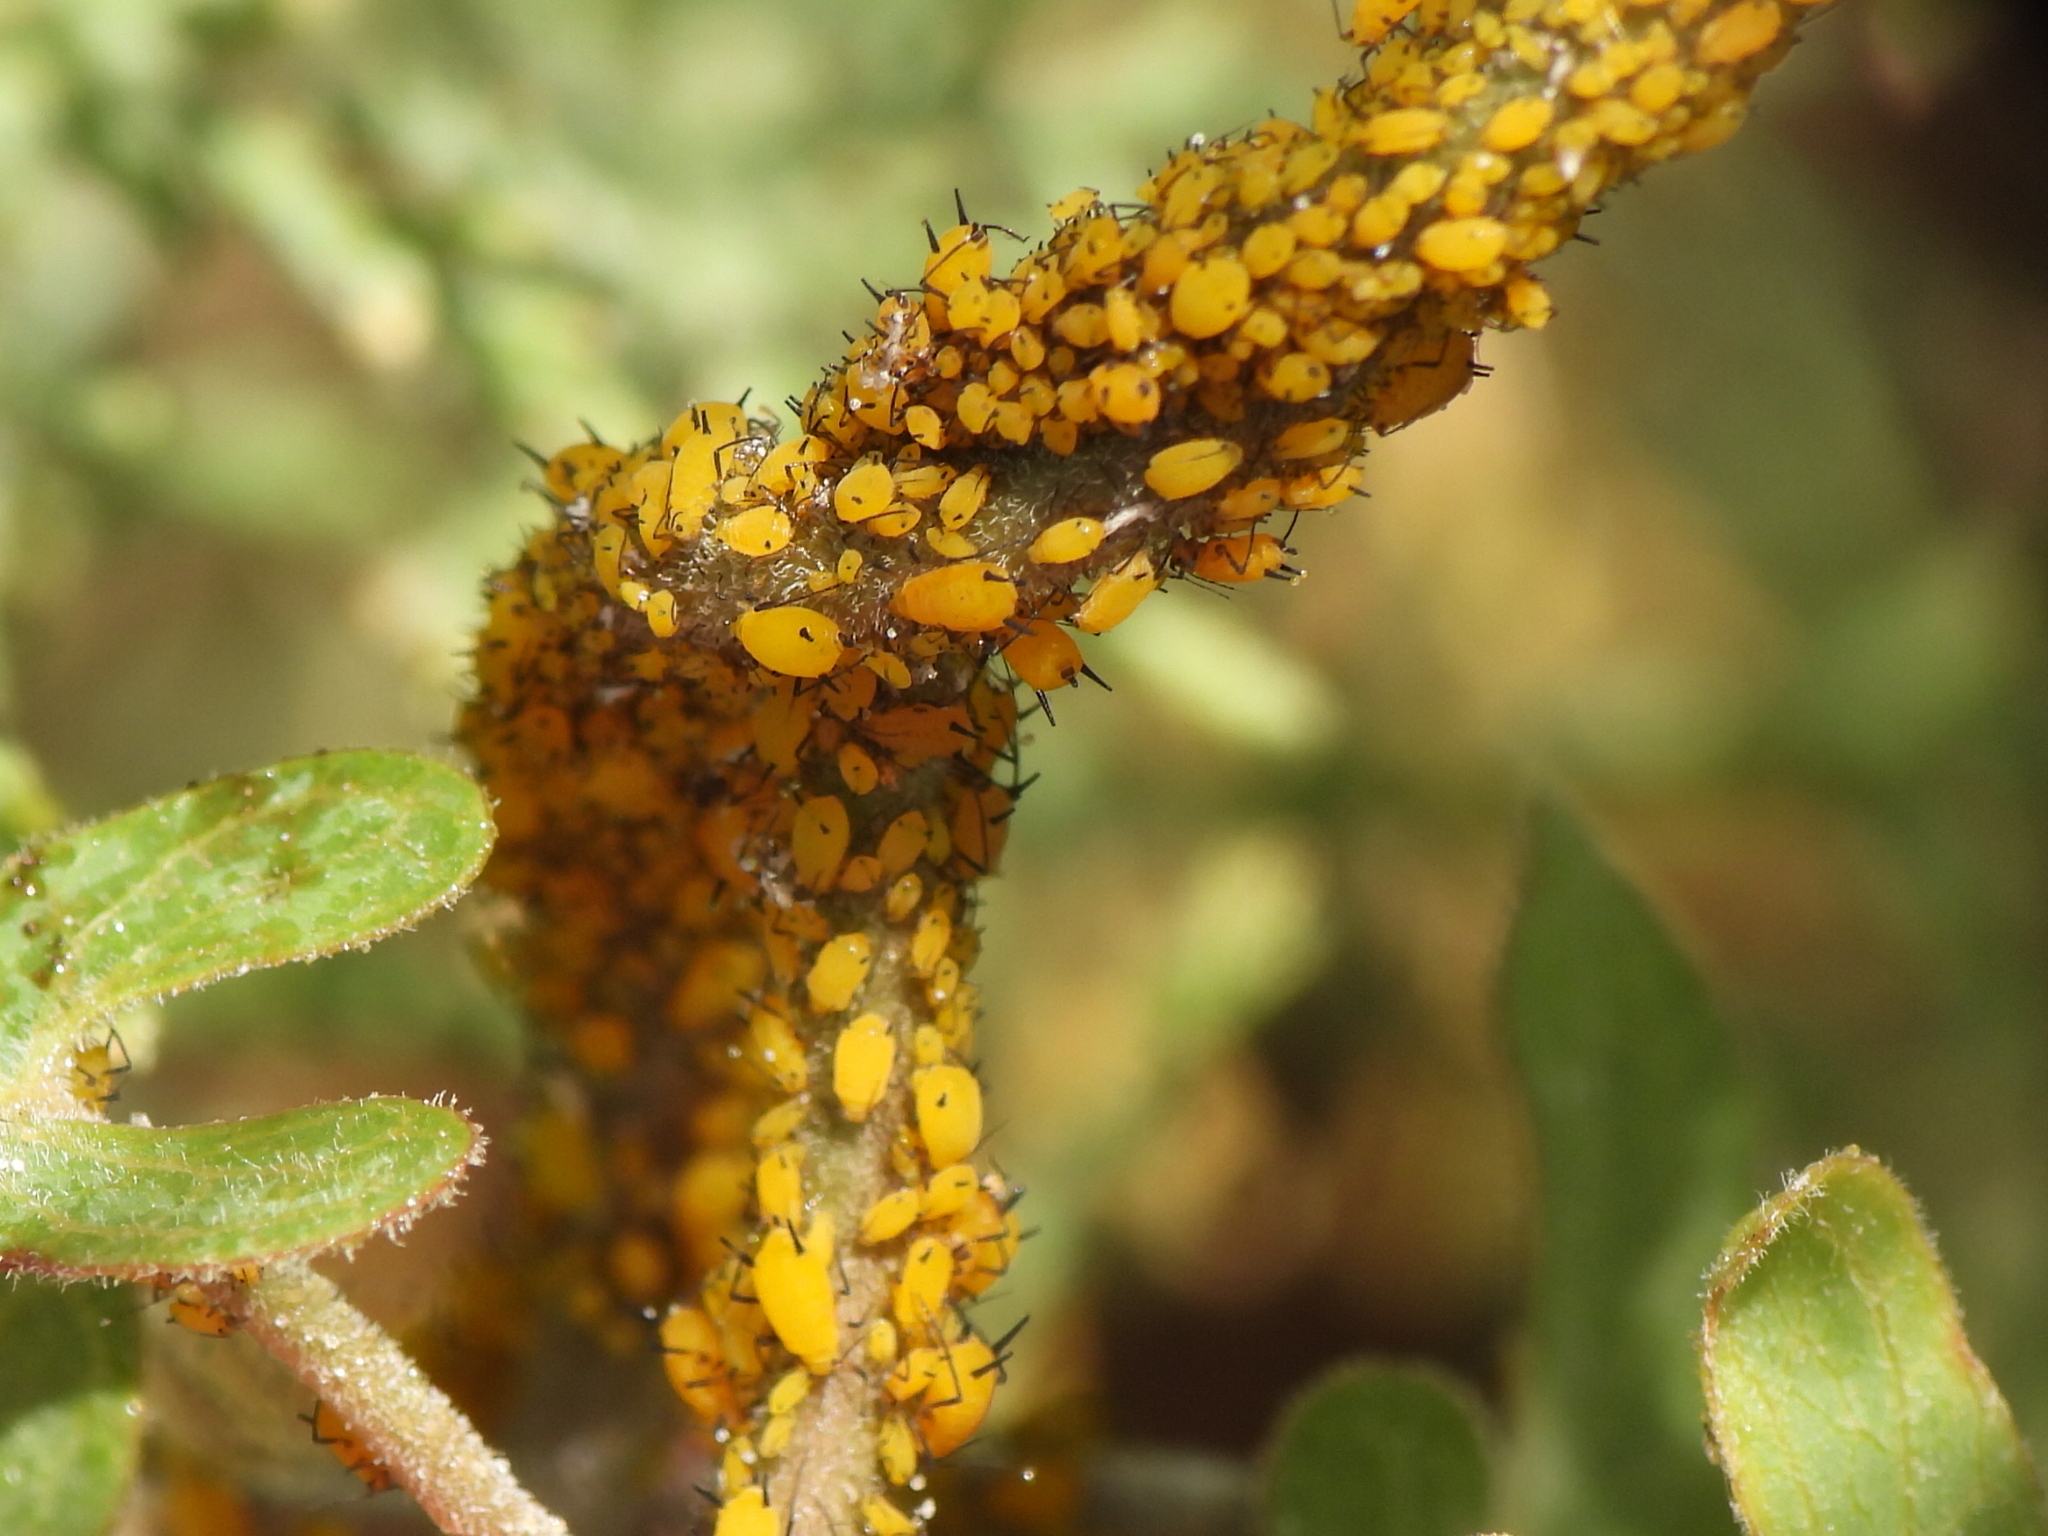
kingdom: Animalia
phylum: Arthropoda
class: Insecta
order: Hemiptera
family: Aphididae
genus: Aphis
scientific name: Aphis nerii
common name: Oleander aphid
